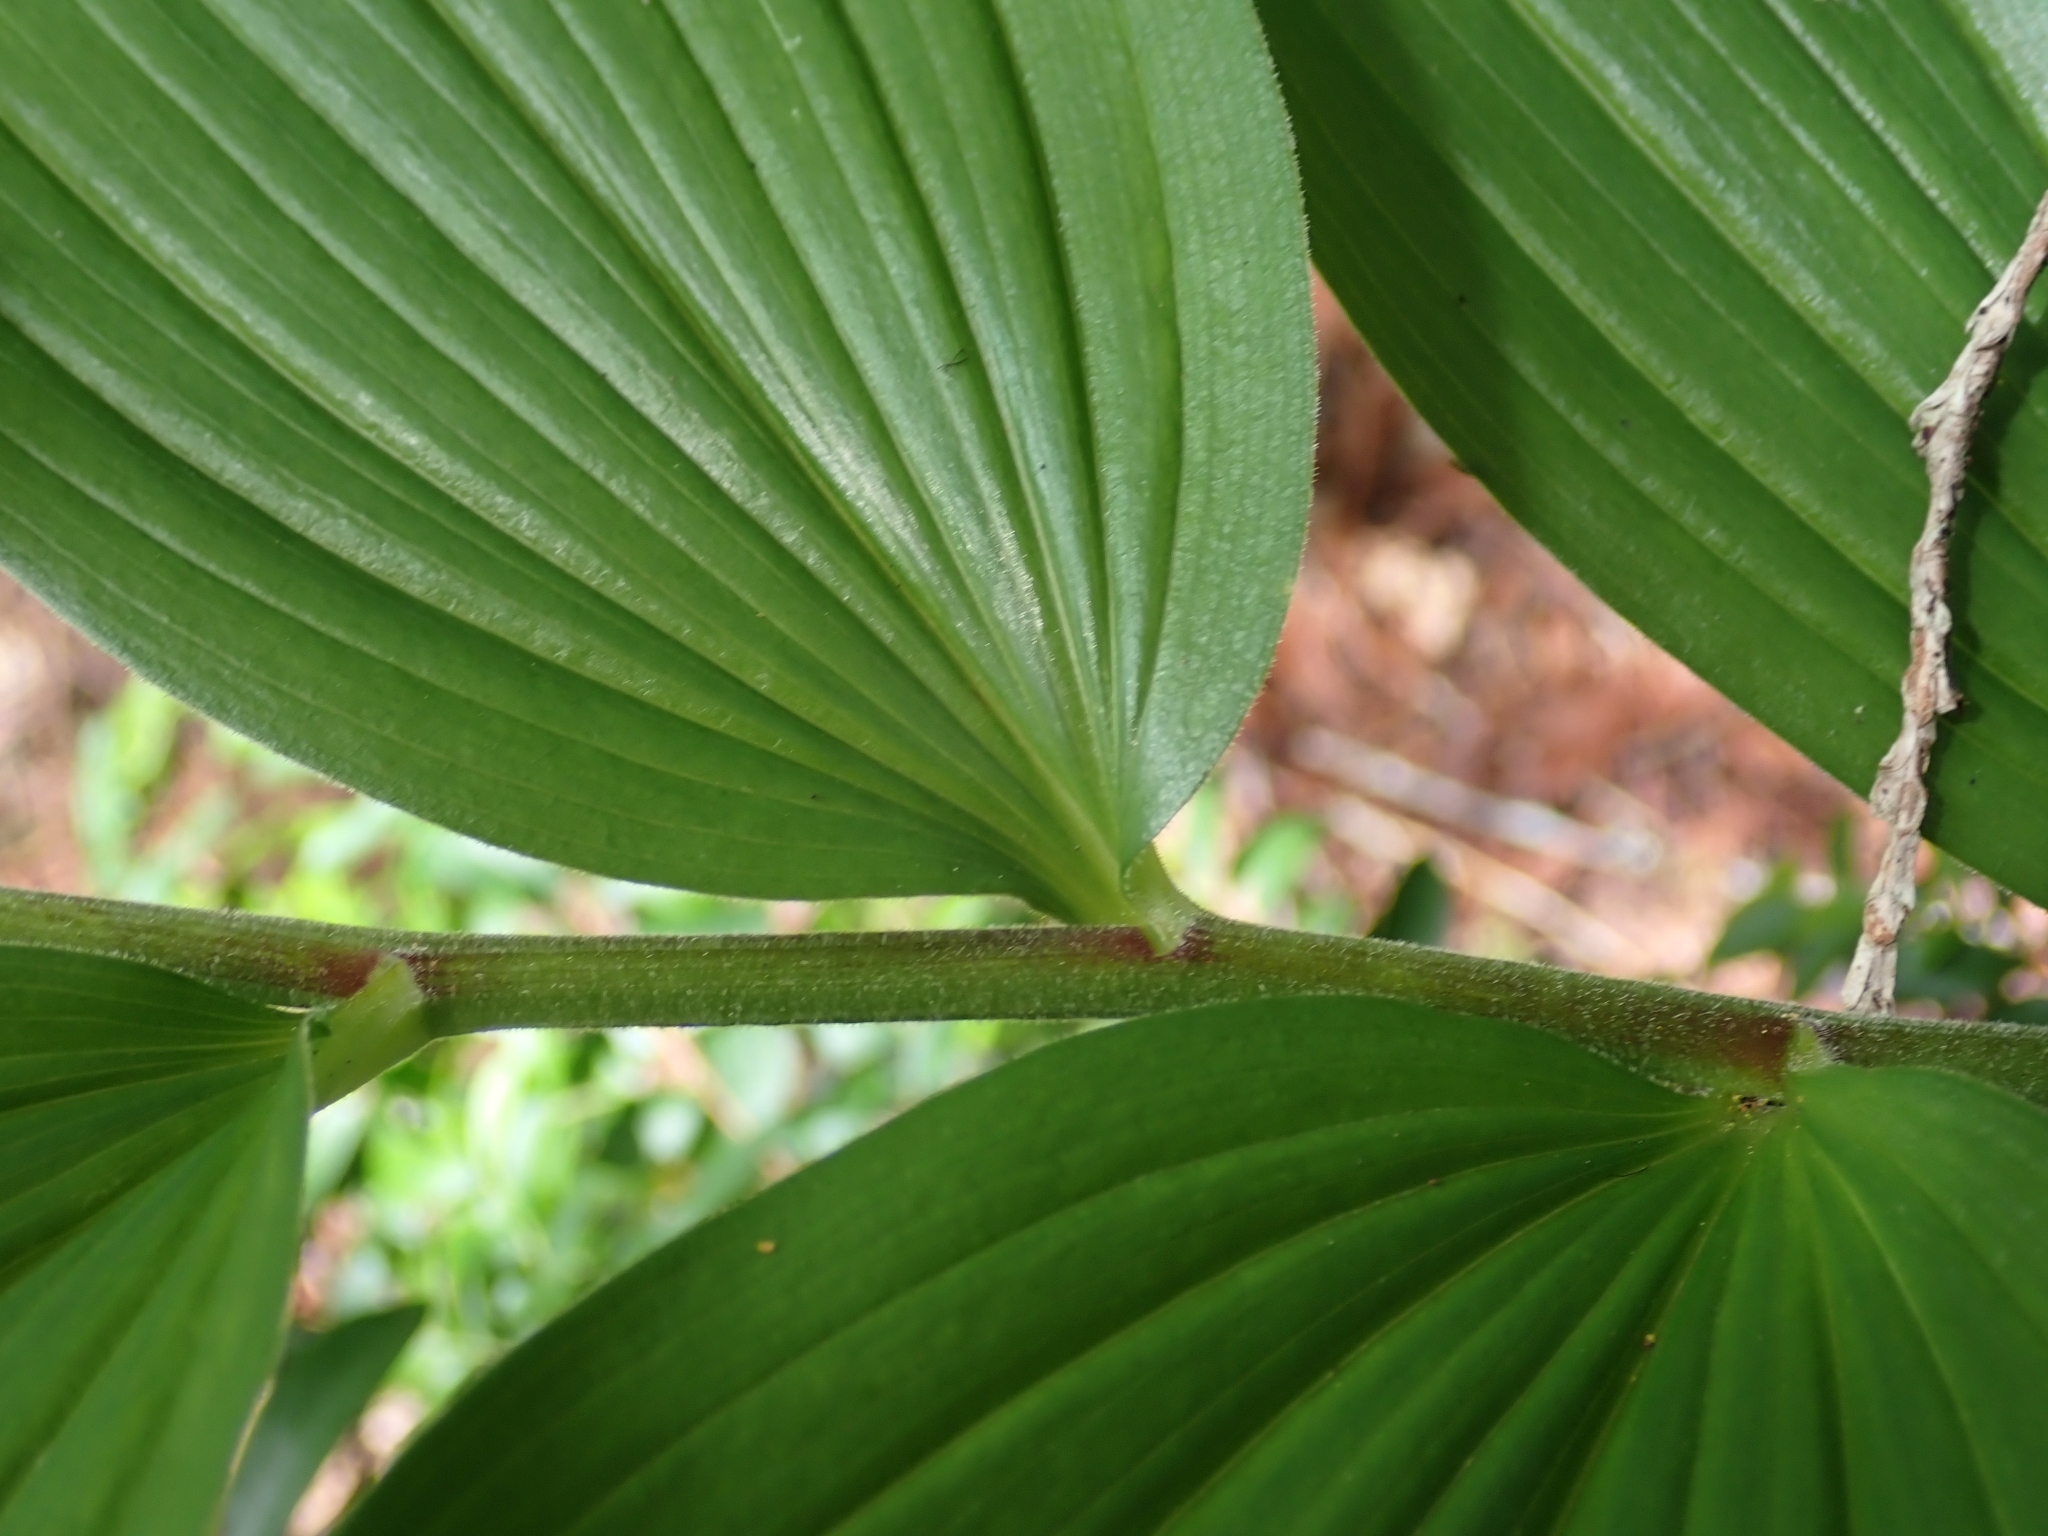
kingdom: Plantae
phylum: Tracheophyta
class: Liliopsida
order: Asparagales
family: Asparagaceae
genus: Maianthemum
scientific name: Maianthemum racemosum
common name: False spikenard
